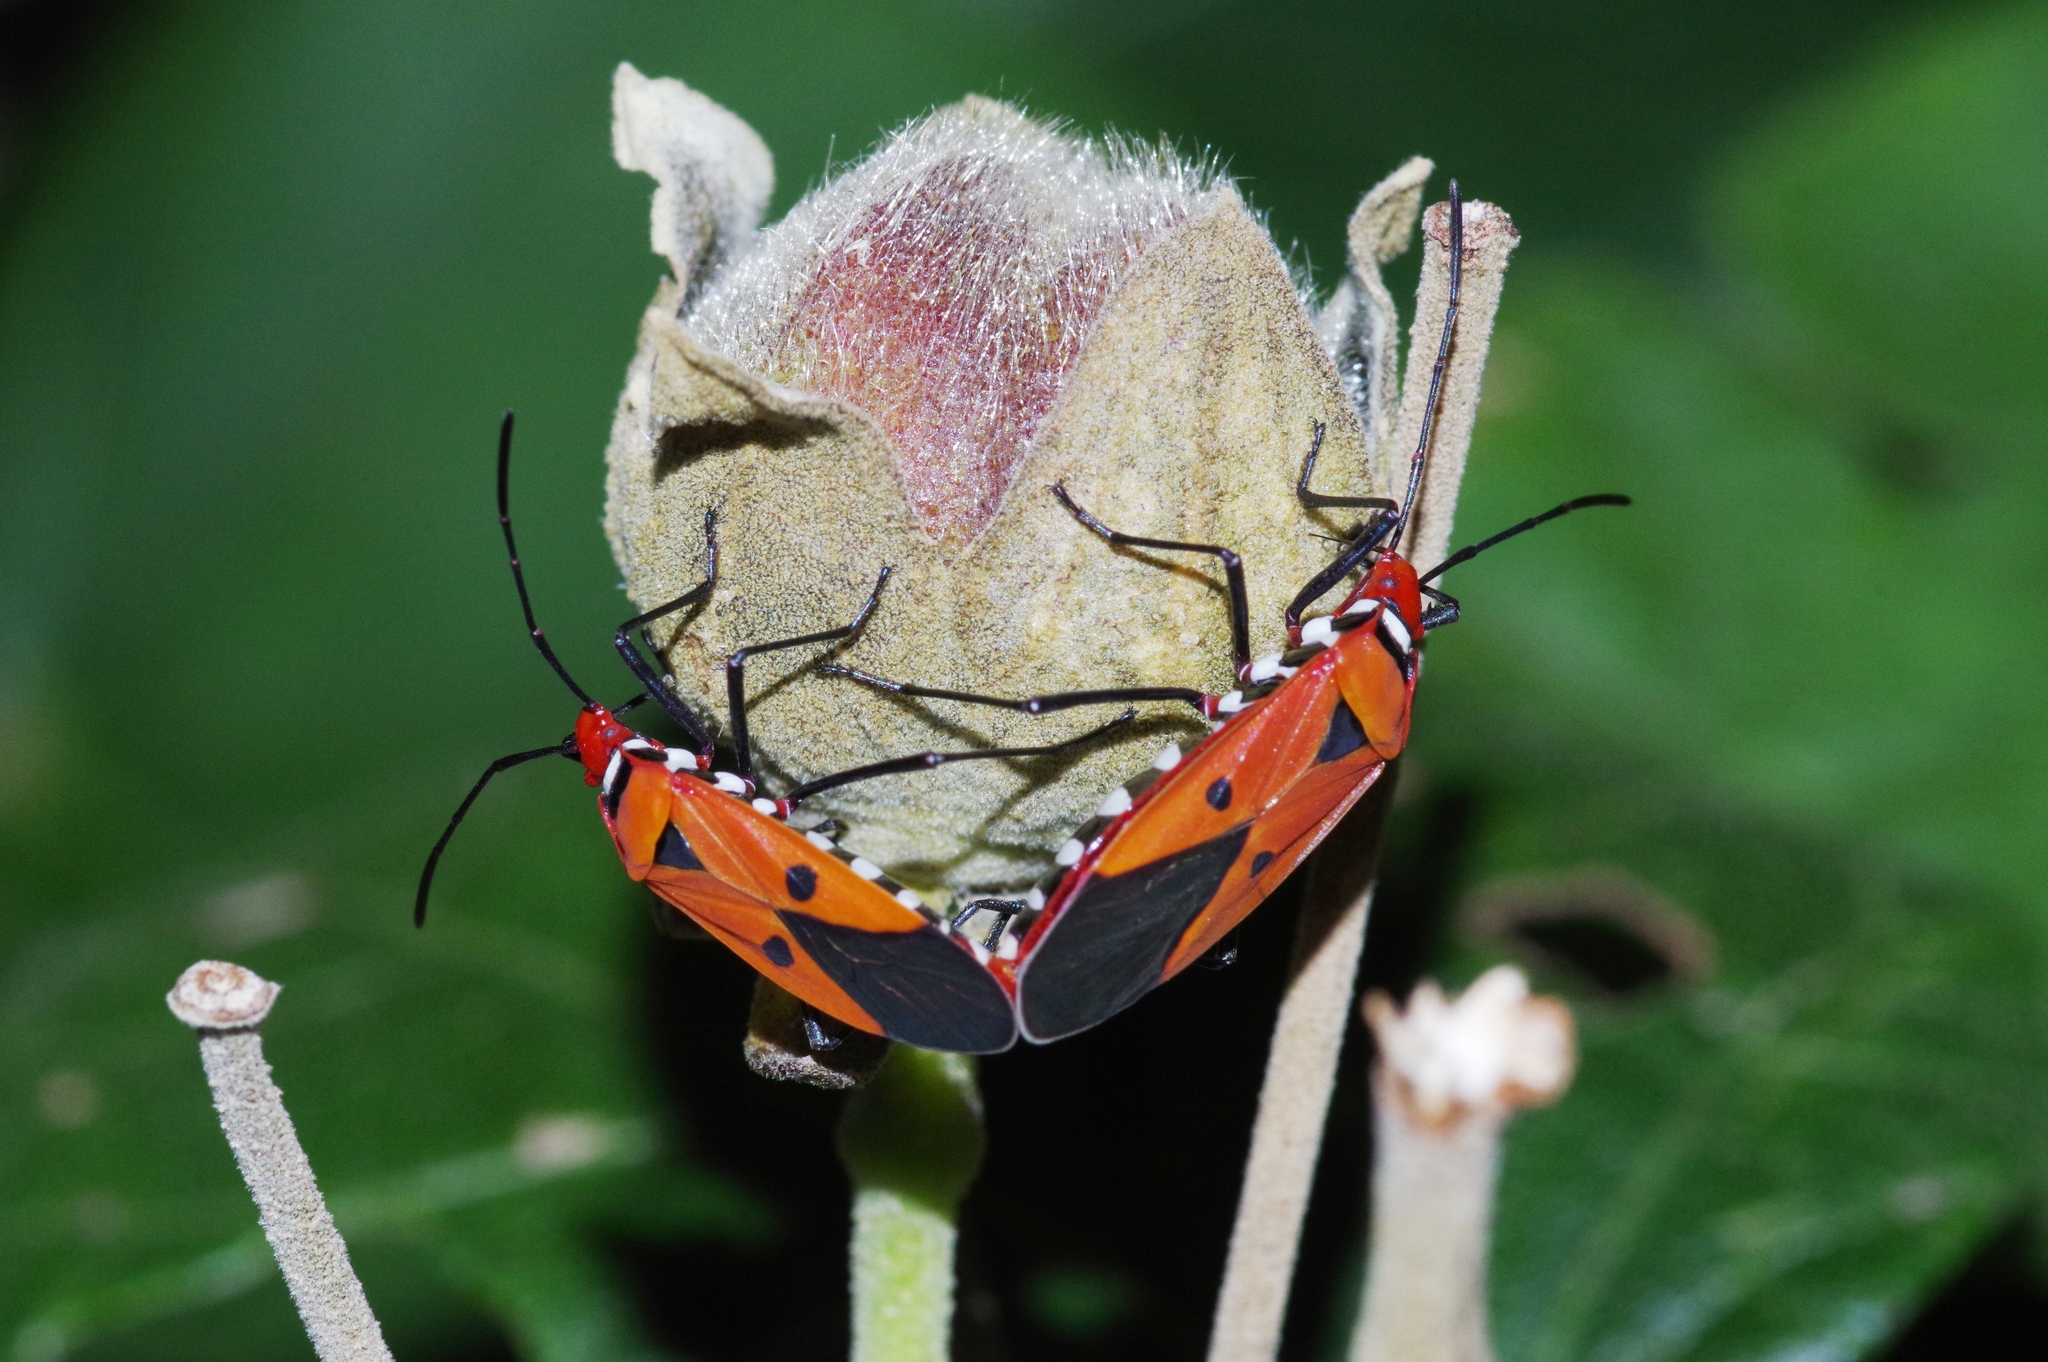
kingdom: Animalia
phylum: Arthropoda
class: Insecta
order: Hemiptera
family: Pyrrhocoridae
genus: Dysdercus
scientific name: Dysdercus cingulatus
